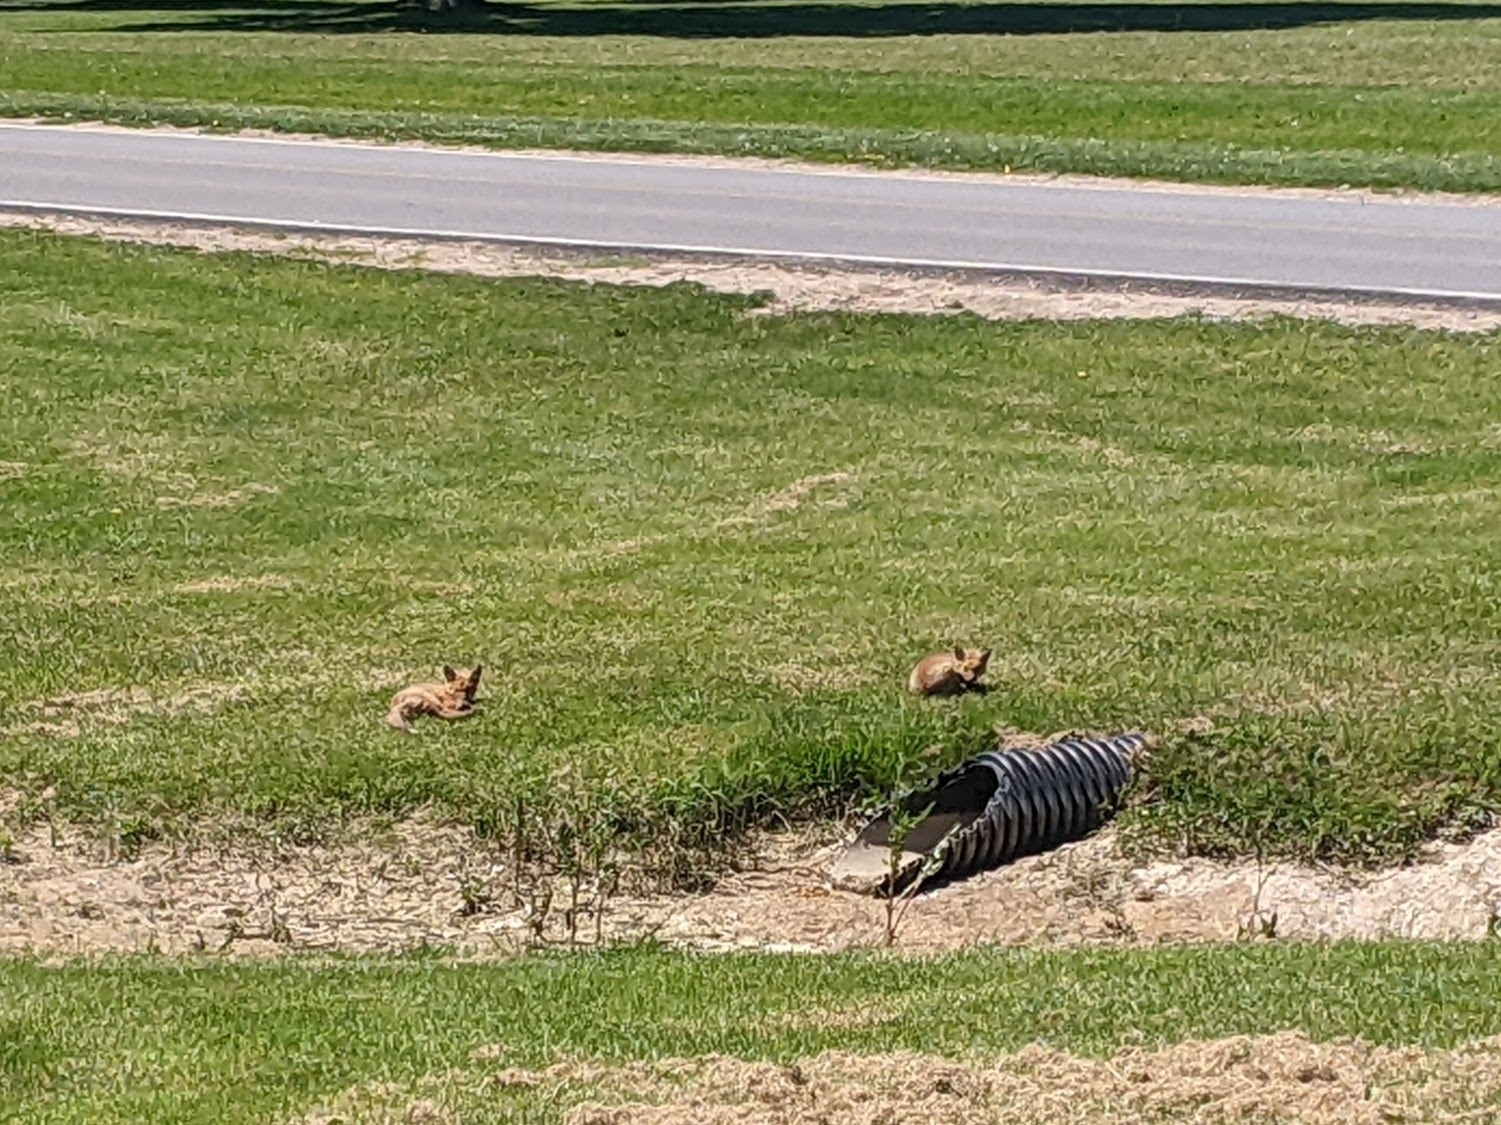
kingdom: Animalia
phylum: Chordata
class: Mammalia
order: Carnivora
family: Canidae
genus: Vulpes
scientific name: Vulpes vulpes
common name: Red fox
